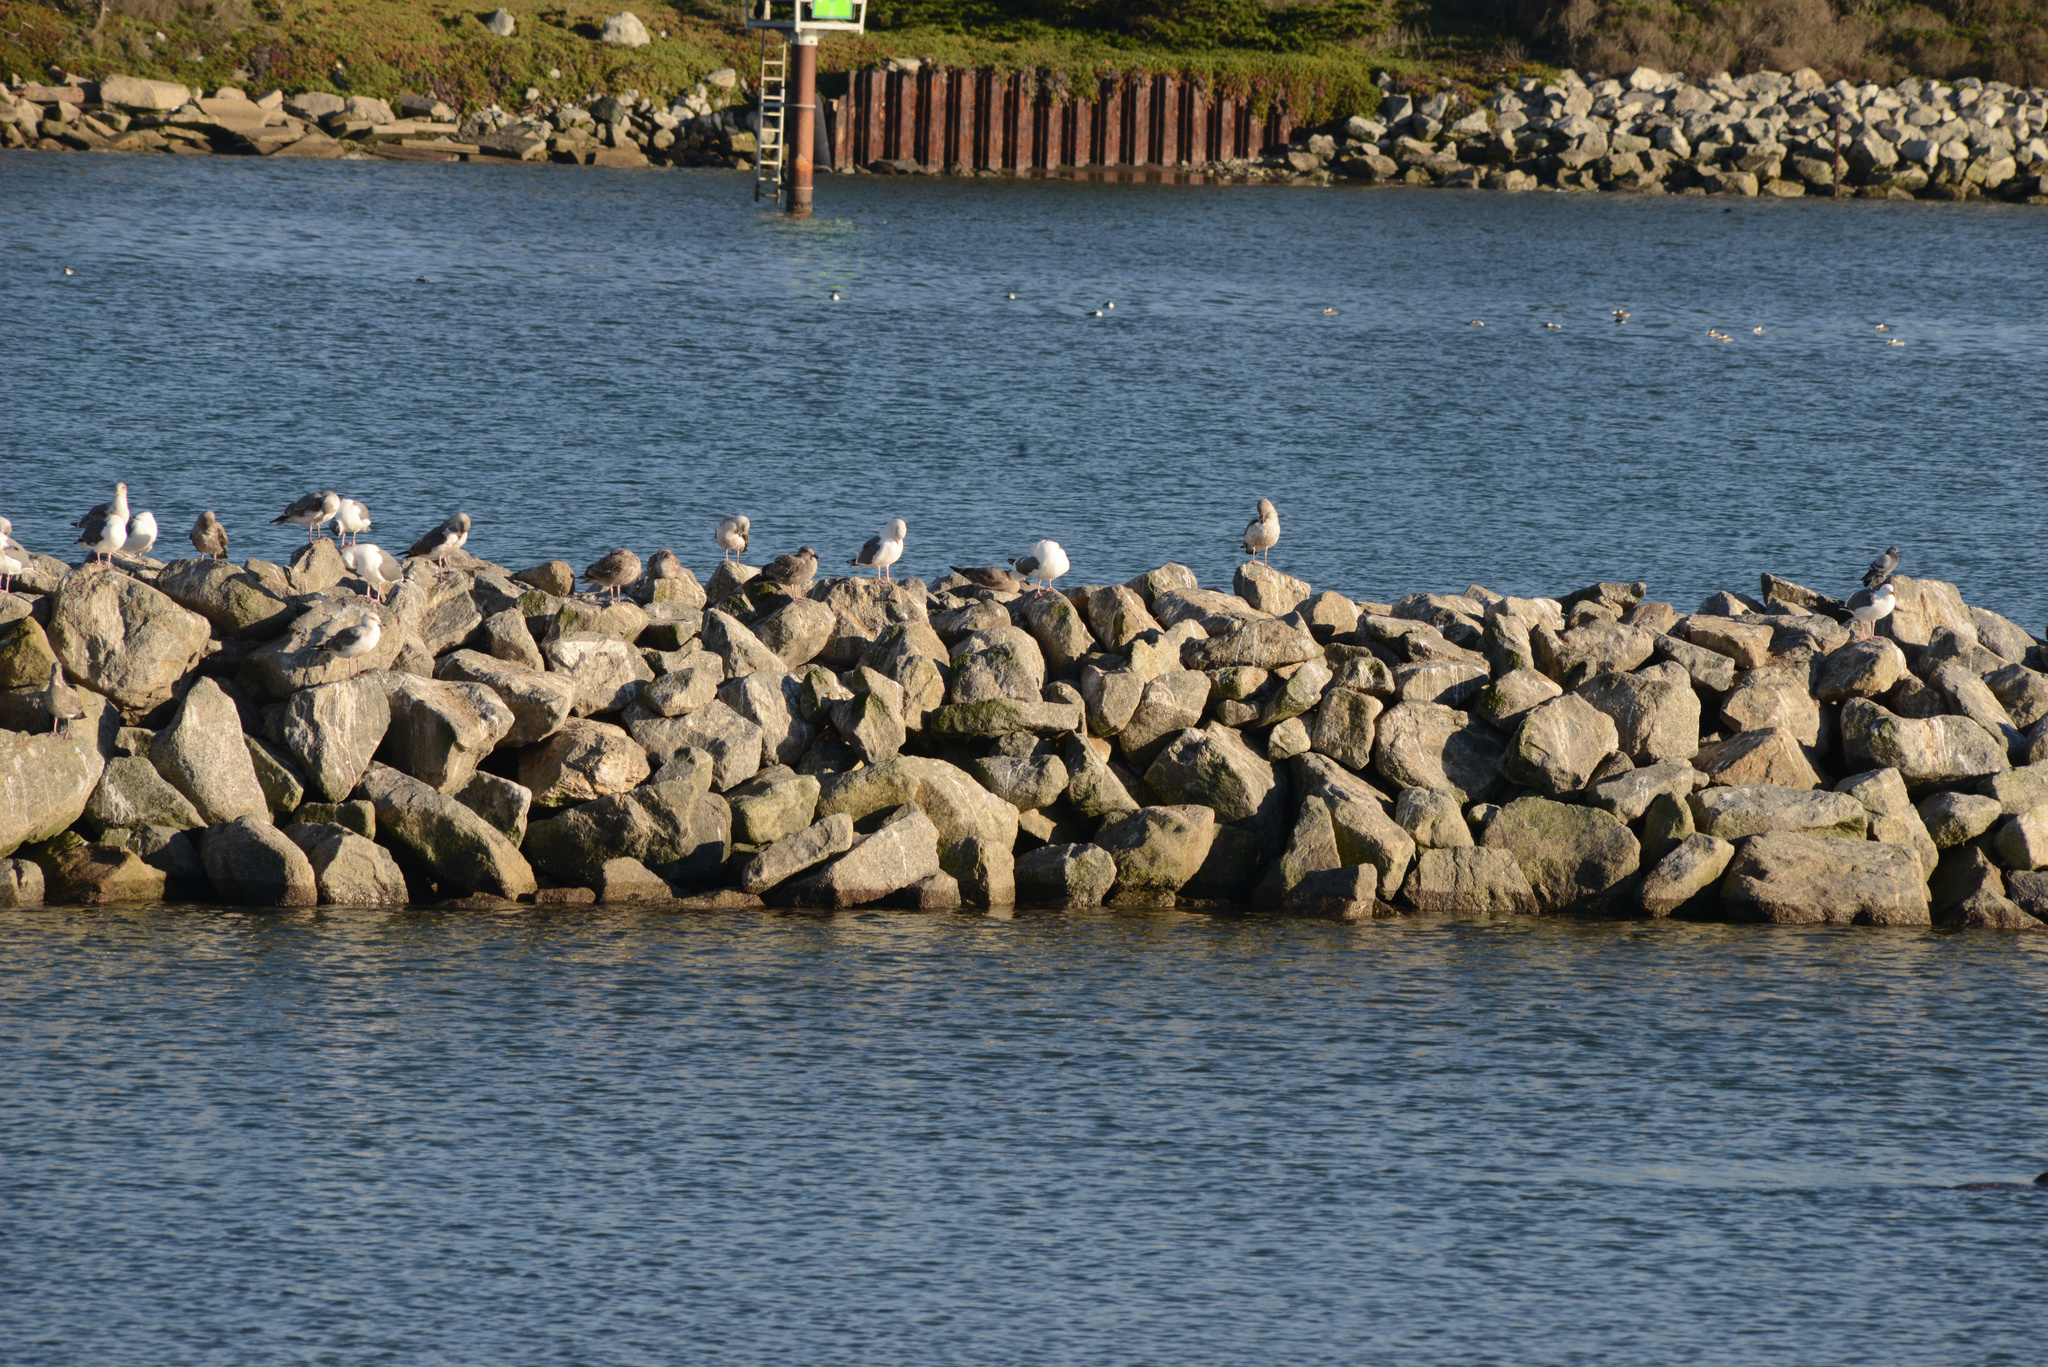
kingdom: Animalia
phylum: Chordata
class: Aves
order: Charadriiformes
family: Laridae
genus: Larus
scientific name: Larus occidentalis
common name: Western gull
